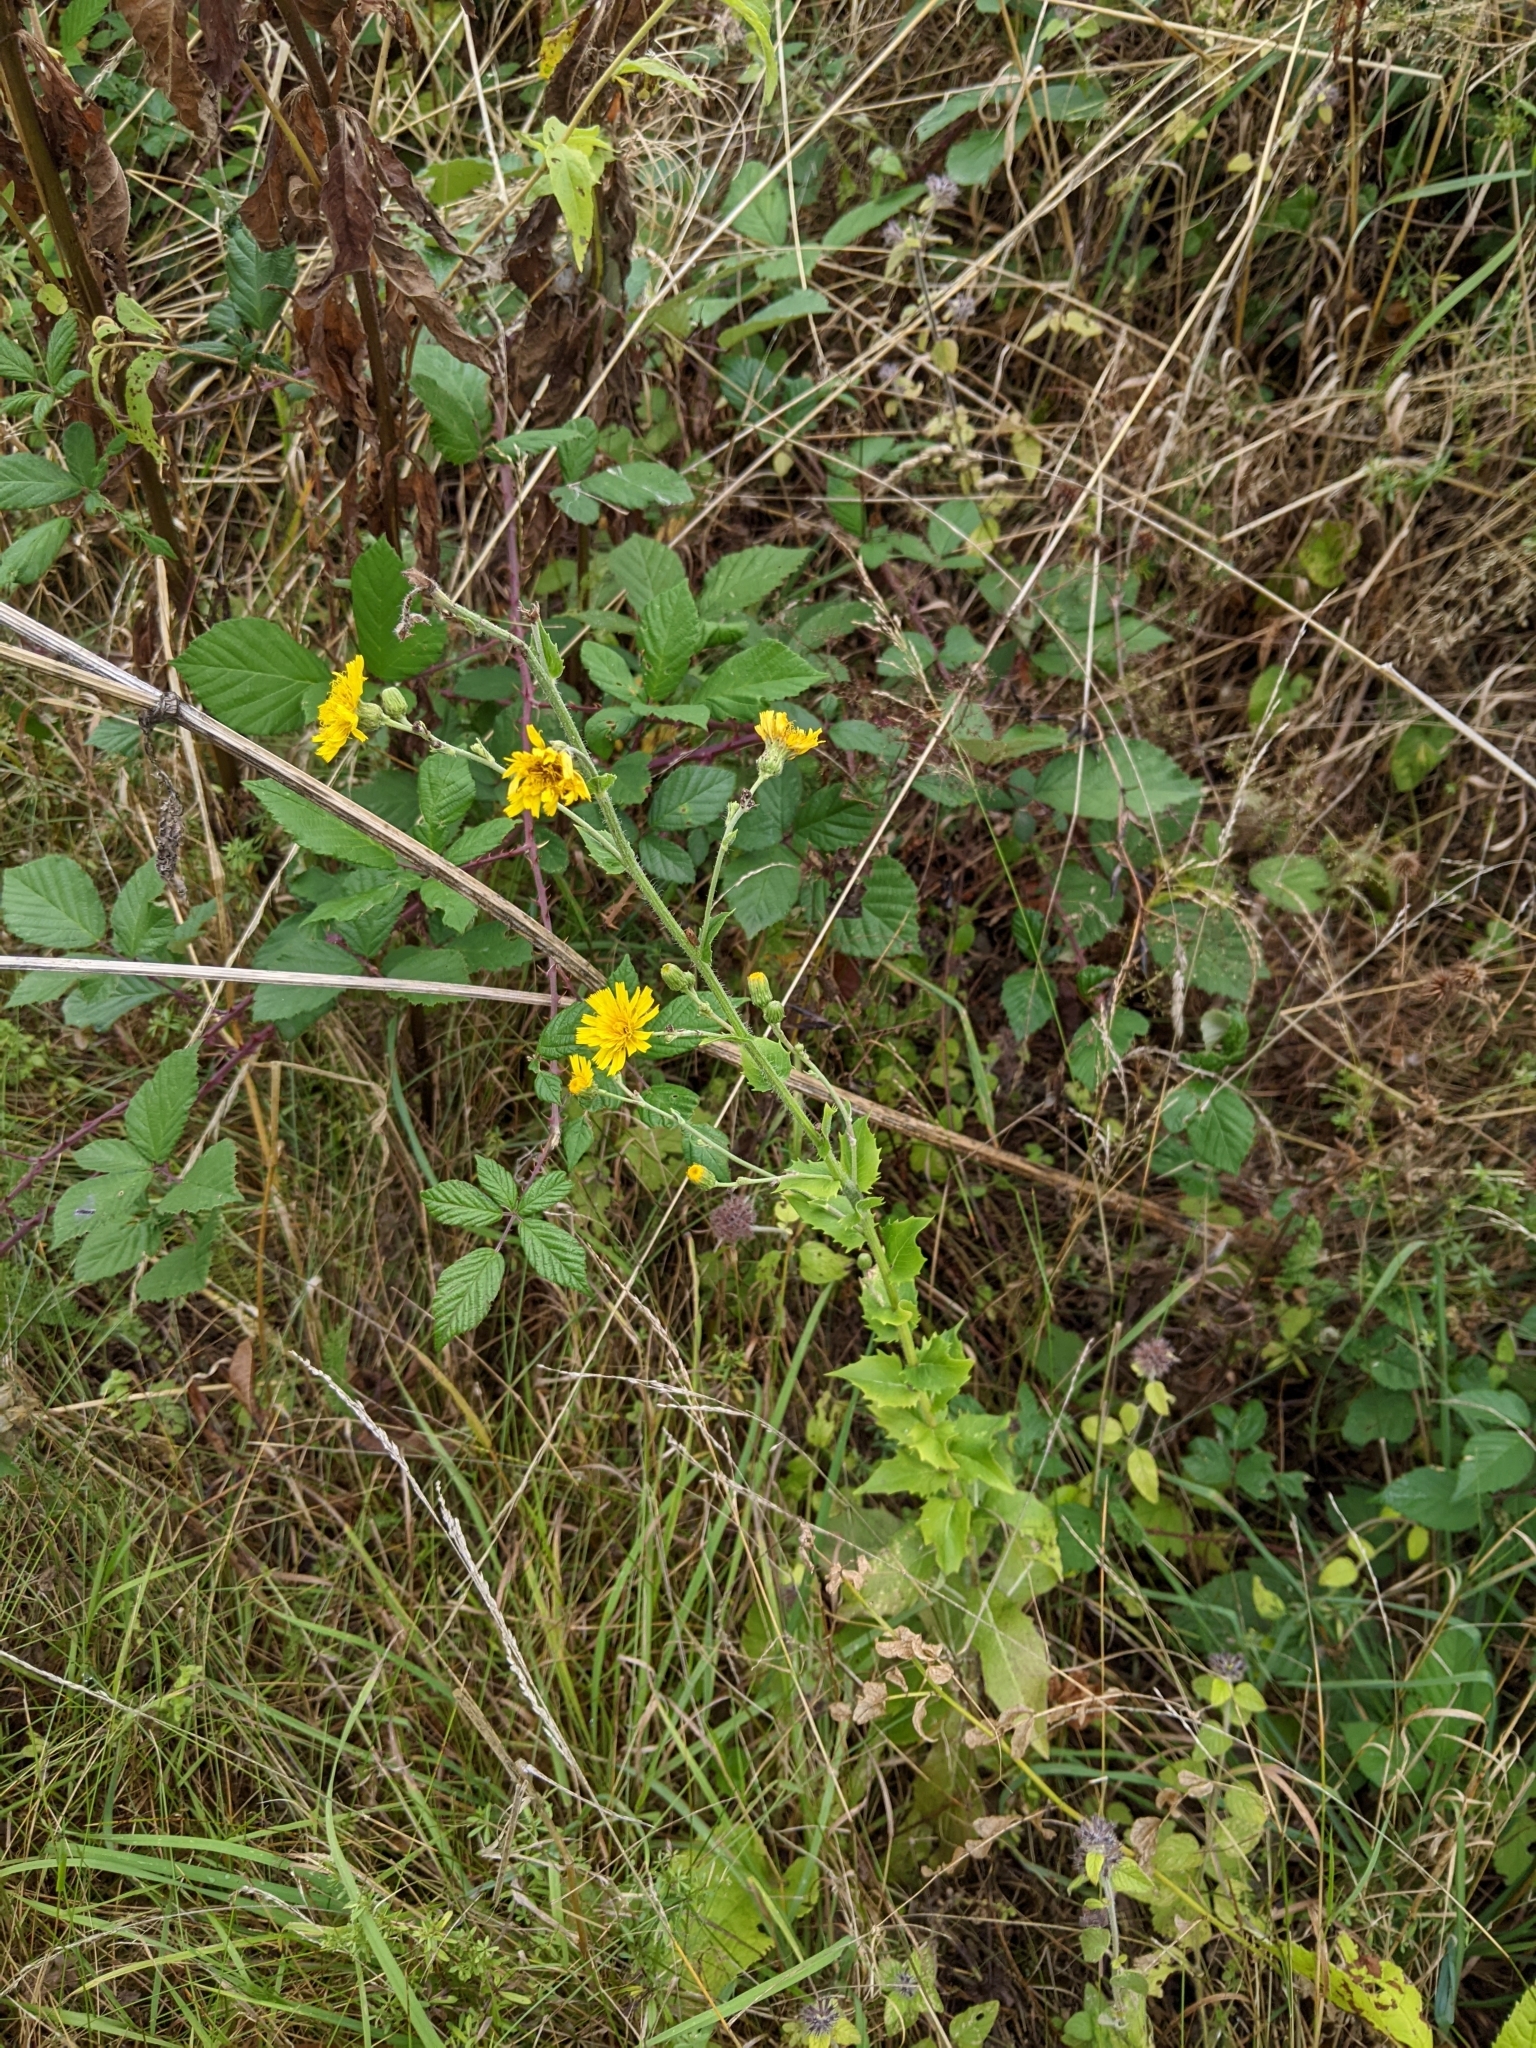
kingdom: Plantae
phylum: Tracheophyta
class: Magnoliopsida
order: Asterales
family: Asteraceae
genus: Hieracium
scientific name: Hieracium sabaudum
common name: New england hawkweed
